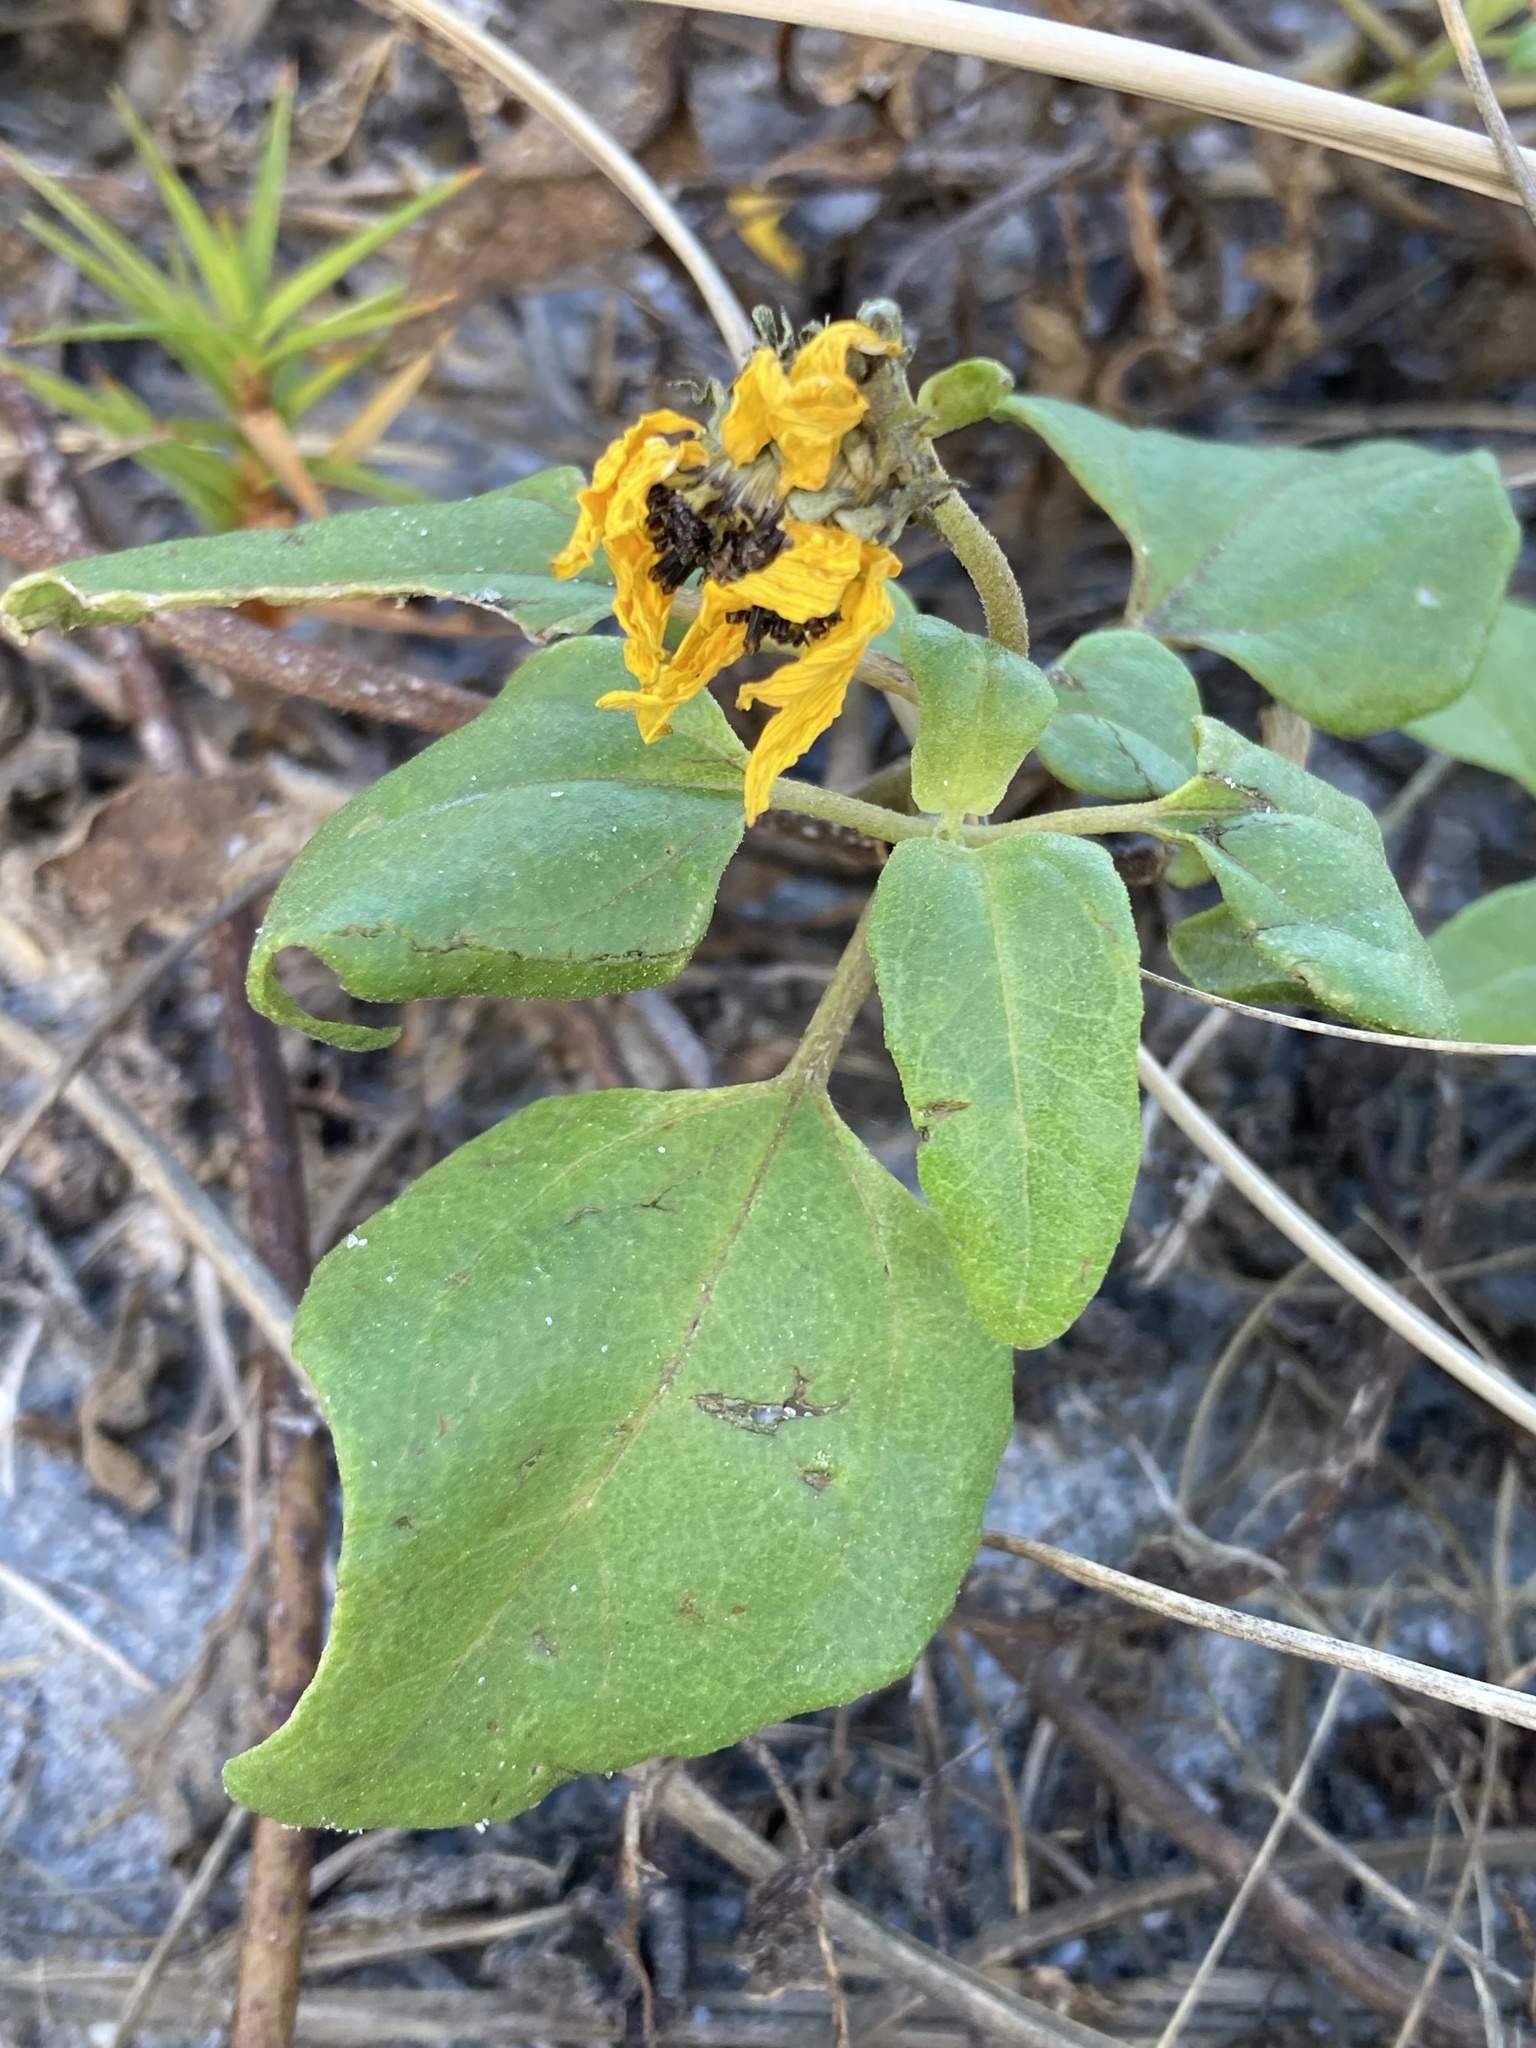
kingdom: Plantae
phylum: Tracheophyta
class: Magnoliopsida
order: Asterales
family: Asteraceae
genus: Helianthus
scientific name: Helianthus debilis
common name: Weak sunflower
